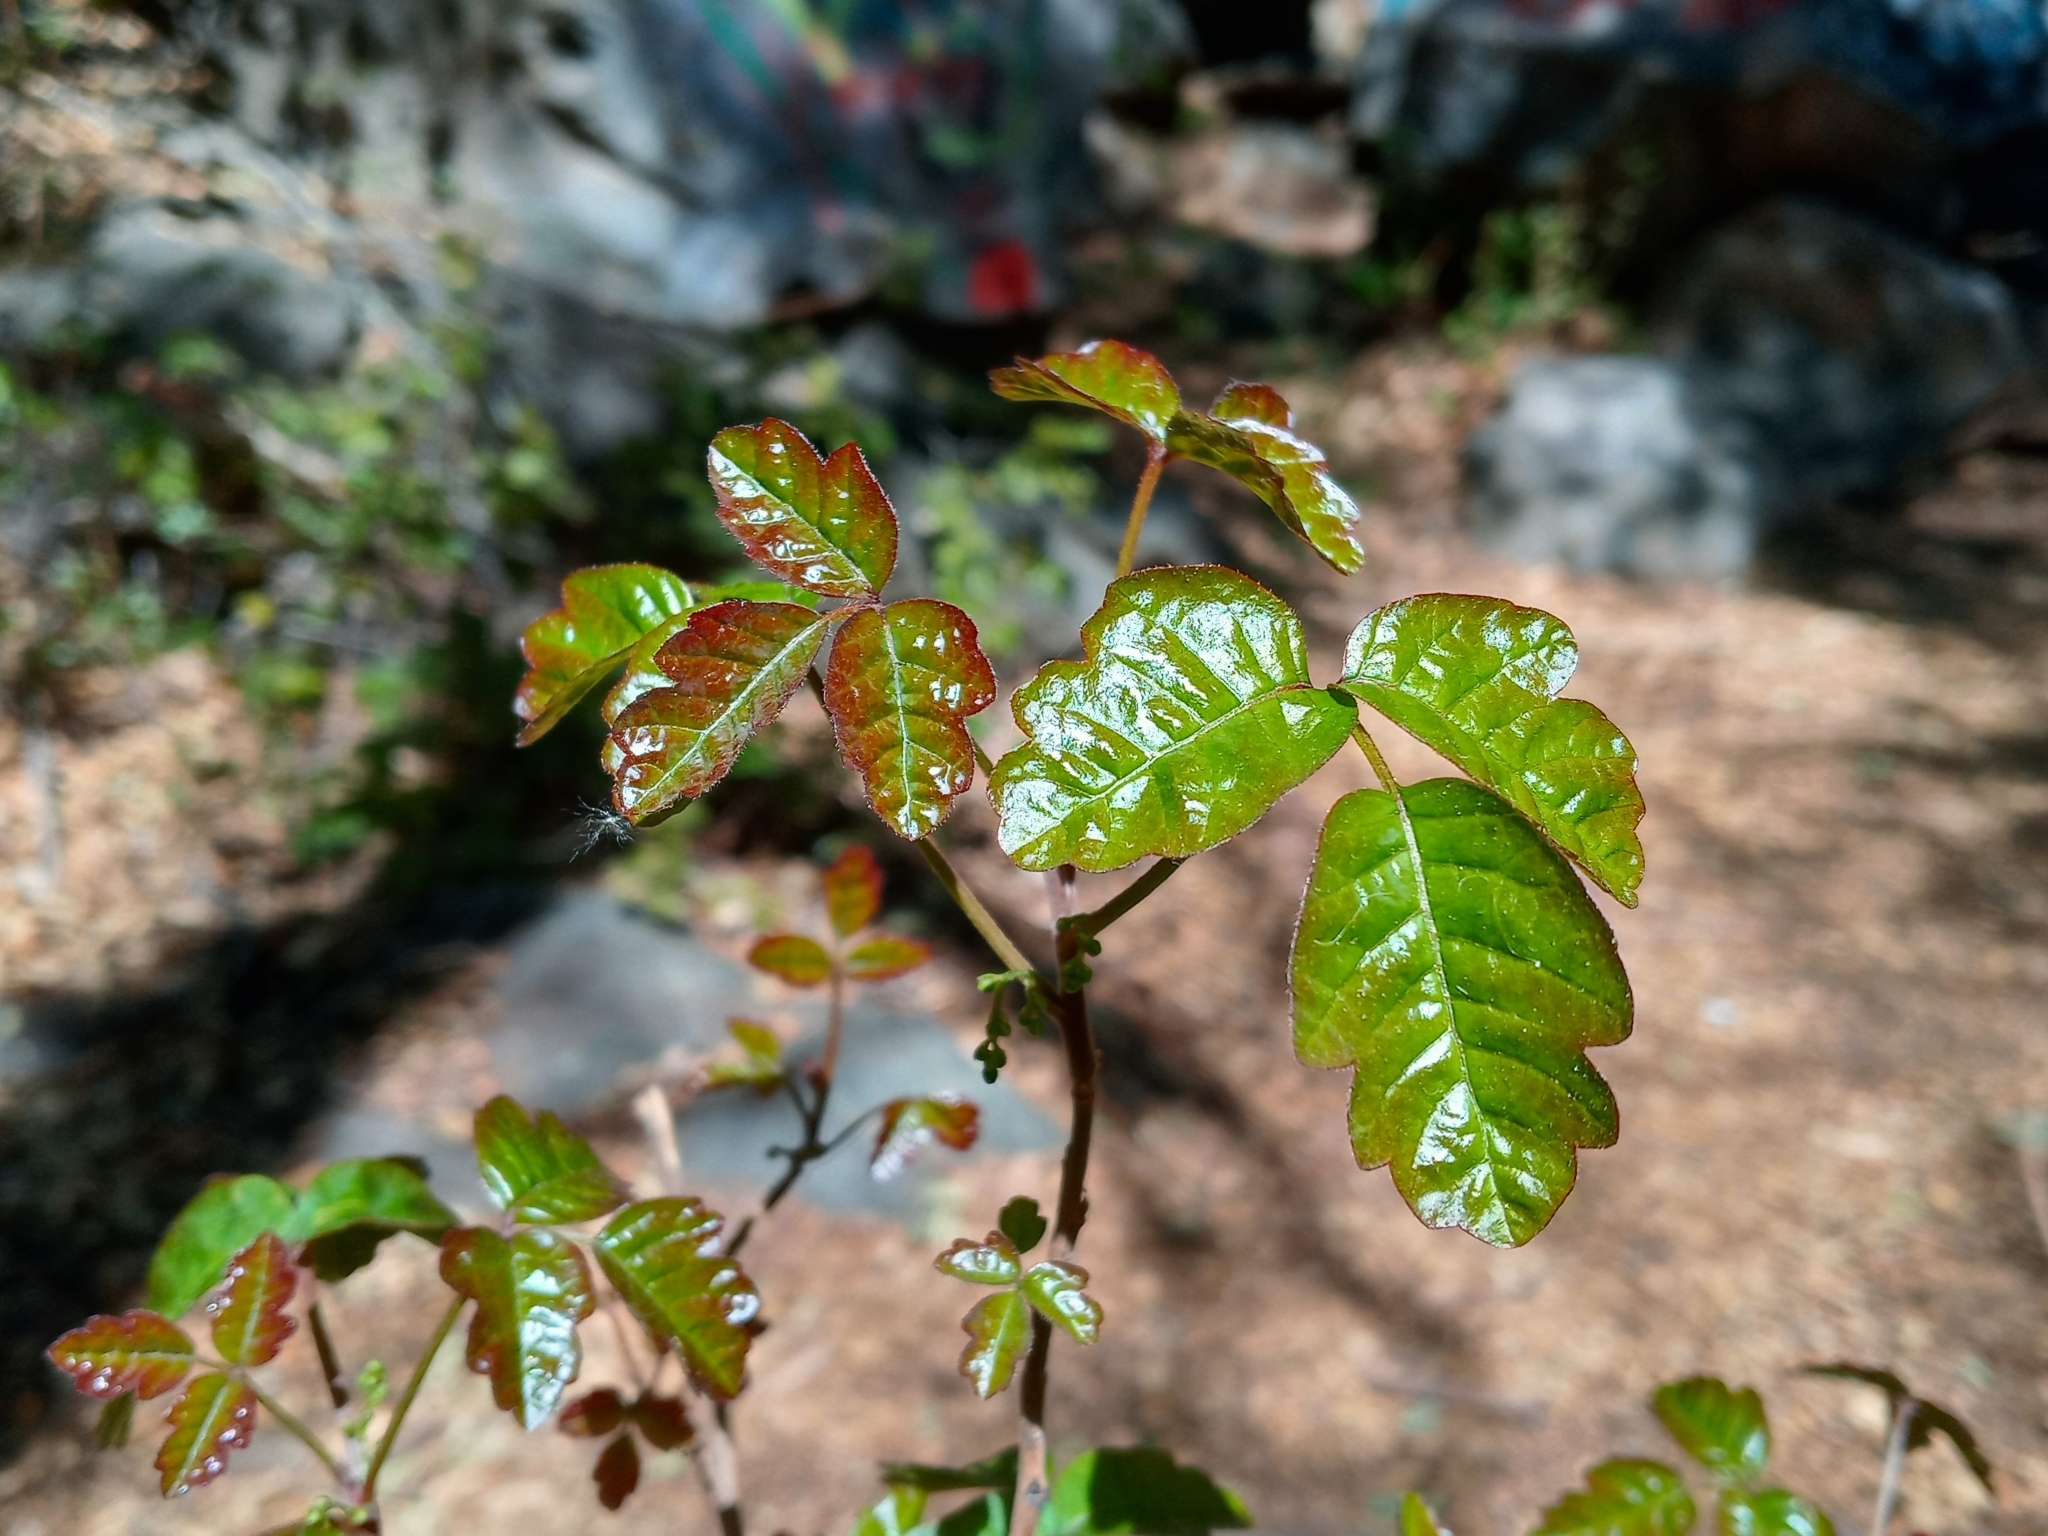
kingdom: Plantae
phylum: Tracheophyta
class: Magnoliopsida
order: Sapindales
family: Anacardiaceae
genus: Toxicodendron
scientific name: Toxicodendron diversilobum
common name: Pacific poison-oak
